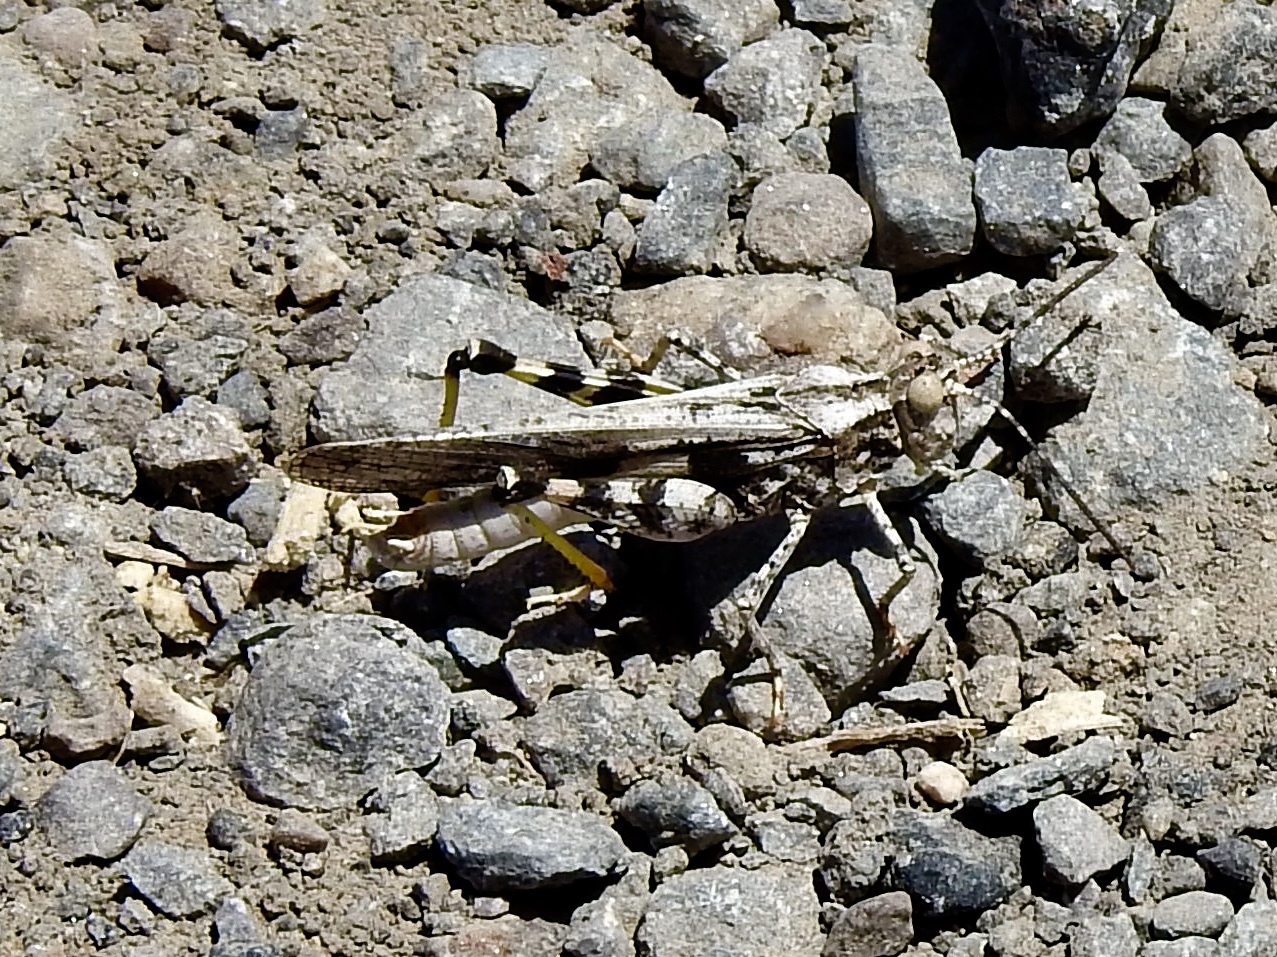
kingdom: Animalia
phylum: Arthropoda
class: Insecta
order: Orthoptera
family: Acrididae
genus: Conozoa
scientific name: Conozoa carinata
